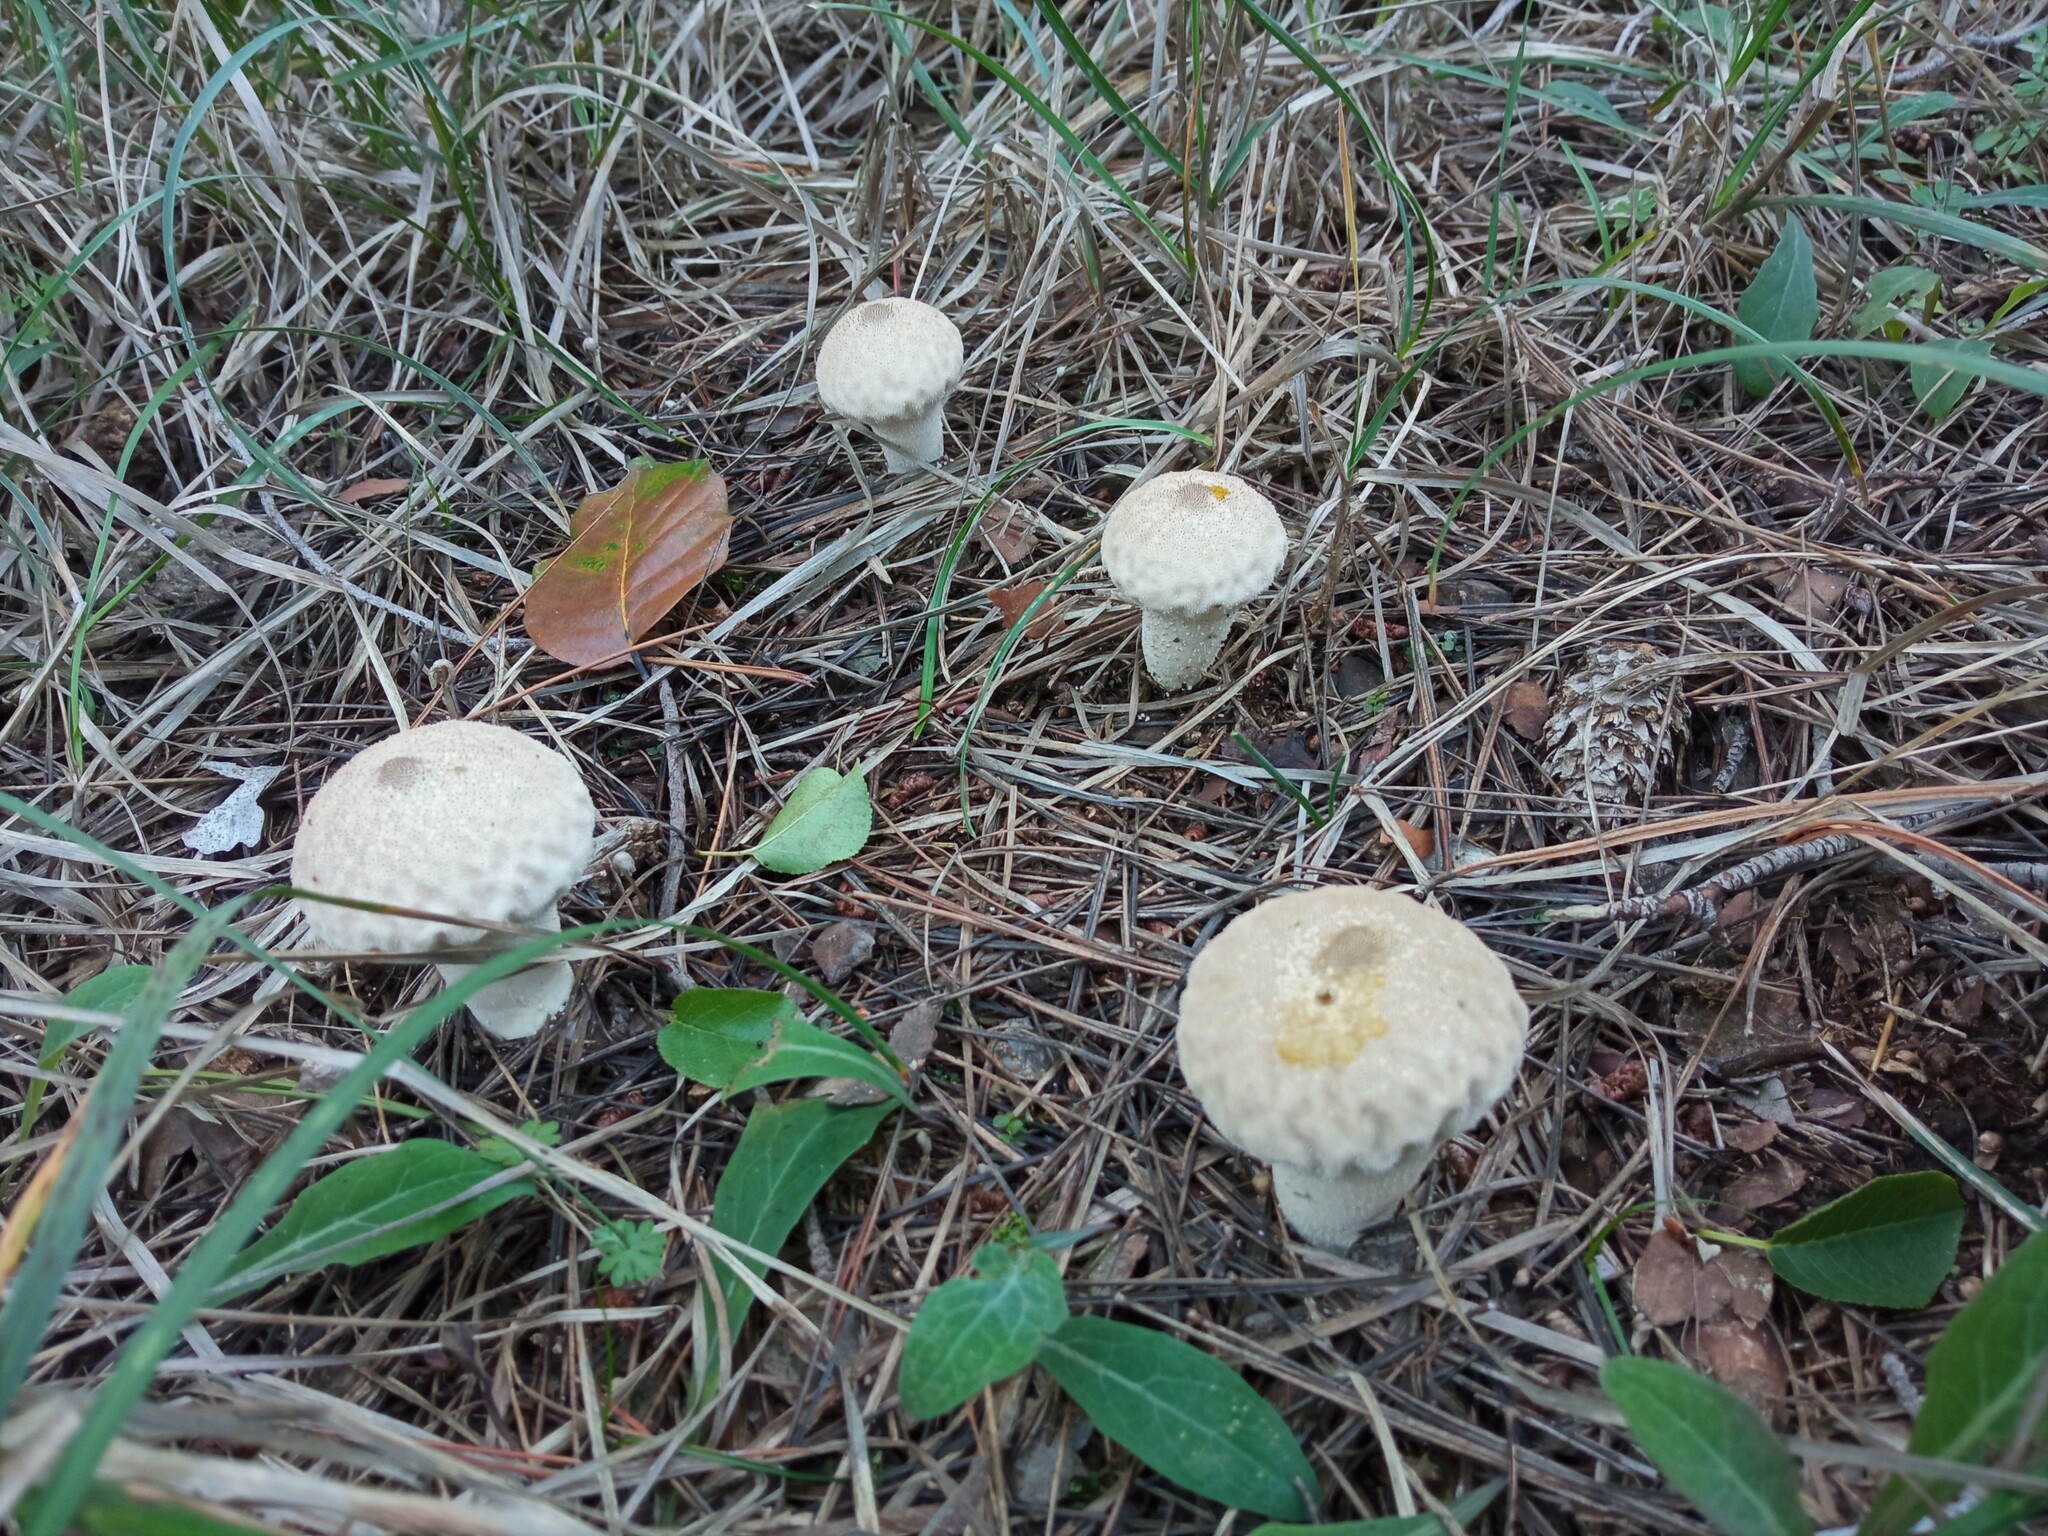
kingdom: Fungi
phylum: Basidiomycota
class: Agaricomycetes
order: Agaricales
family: Lycoperdaceae
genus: Lycoperdon
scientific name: Lycoperdon perlatum
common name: Common puffball
